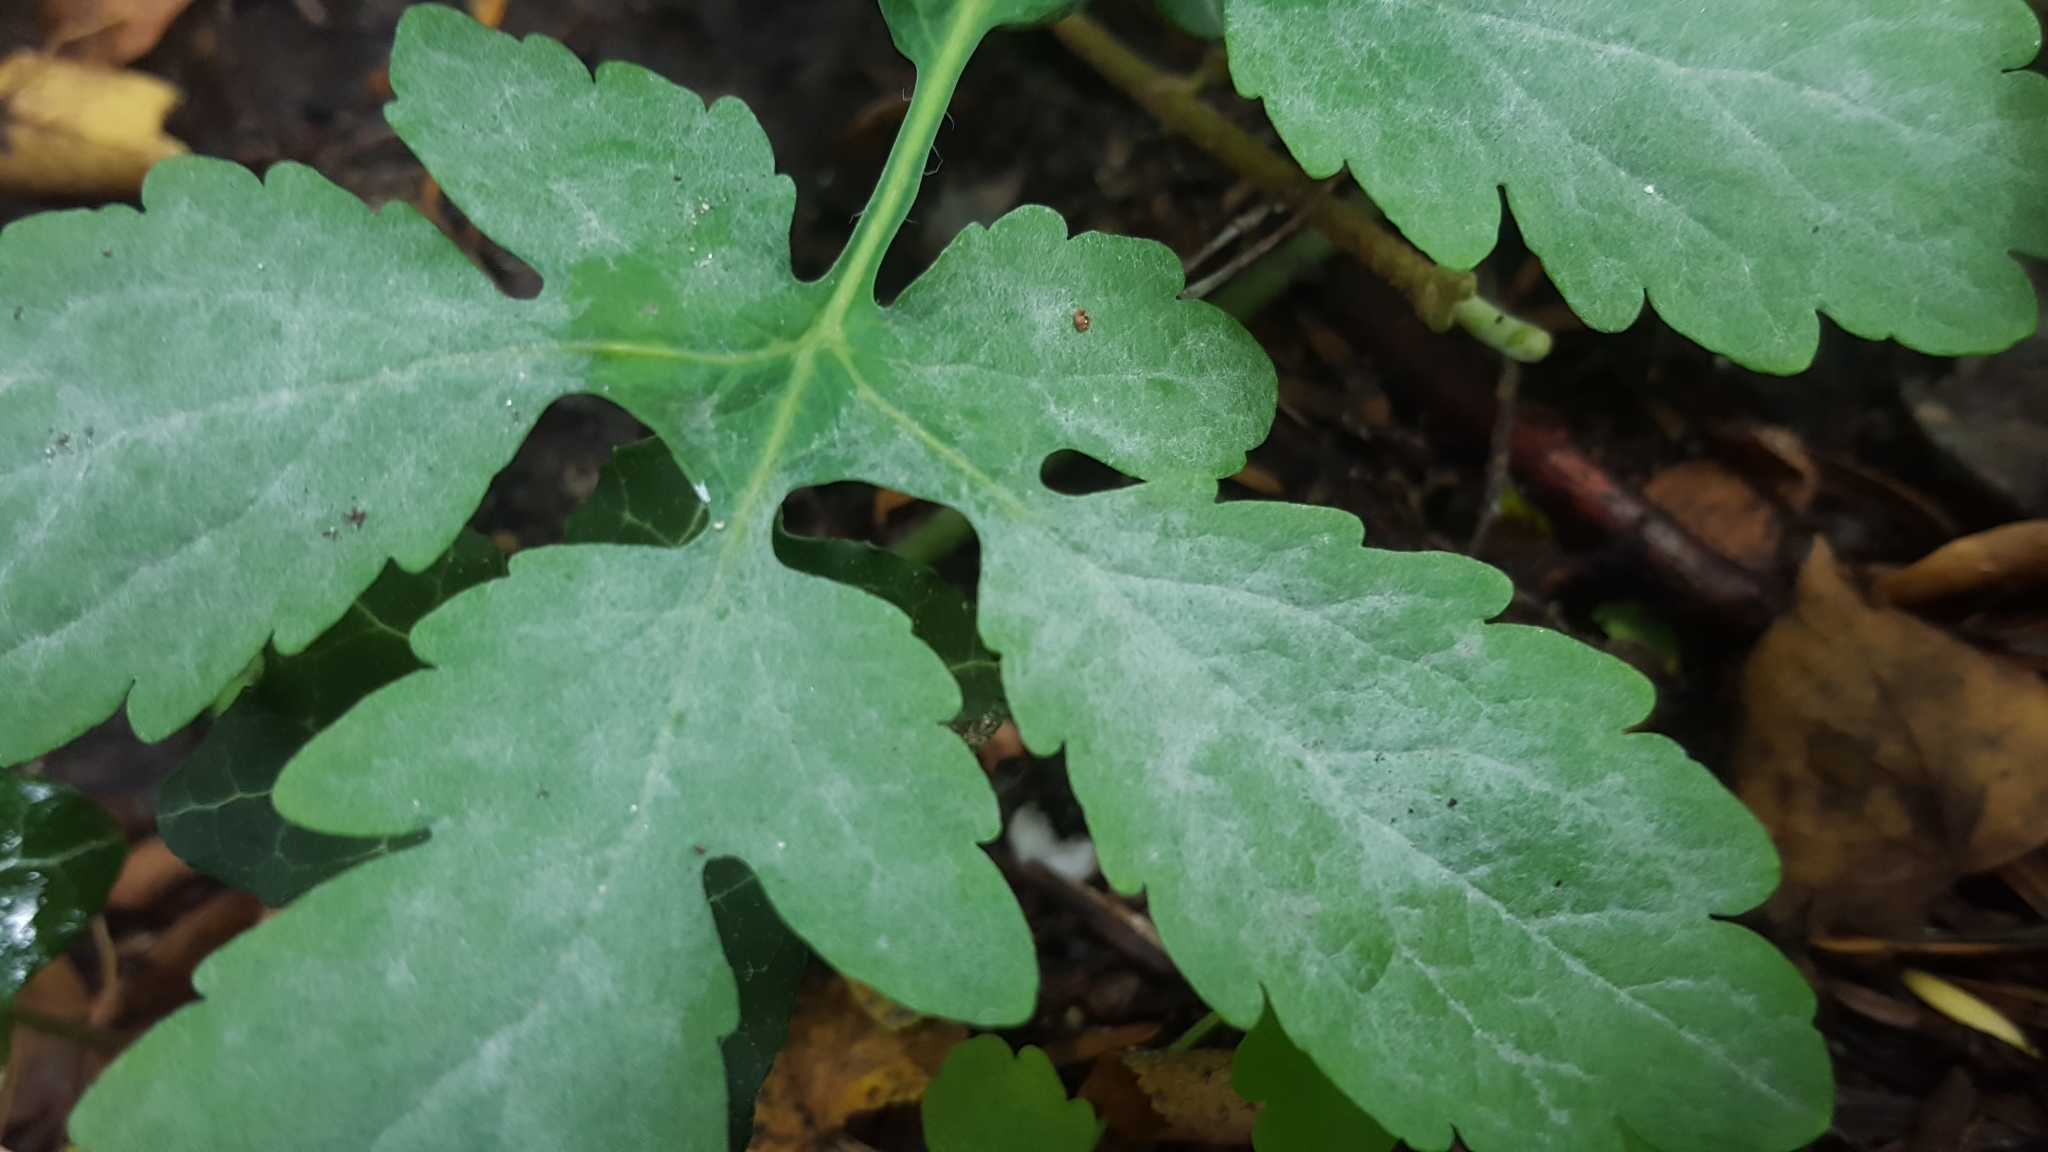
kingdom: Fungi
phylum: Ascomycota
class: Leotiomycetes
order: Helotiales
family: Erysiphaceae
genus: Erysiphe
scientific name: Erysiphe macleayae
